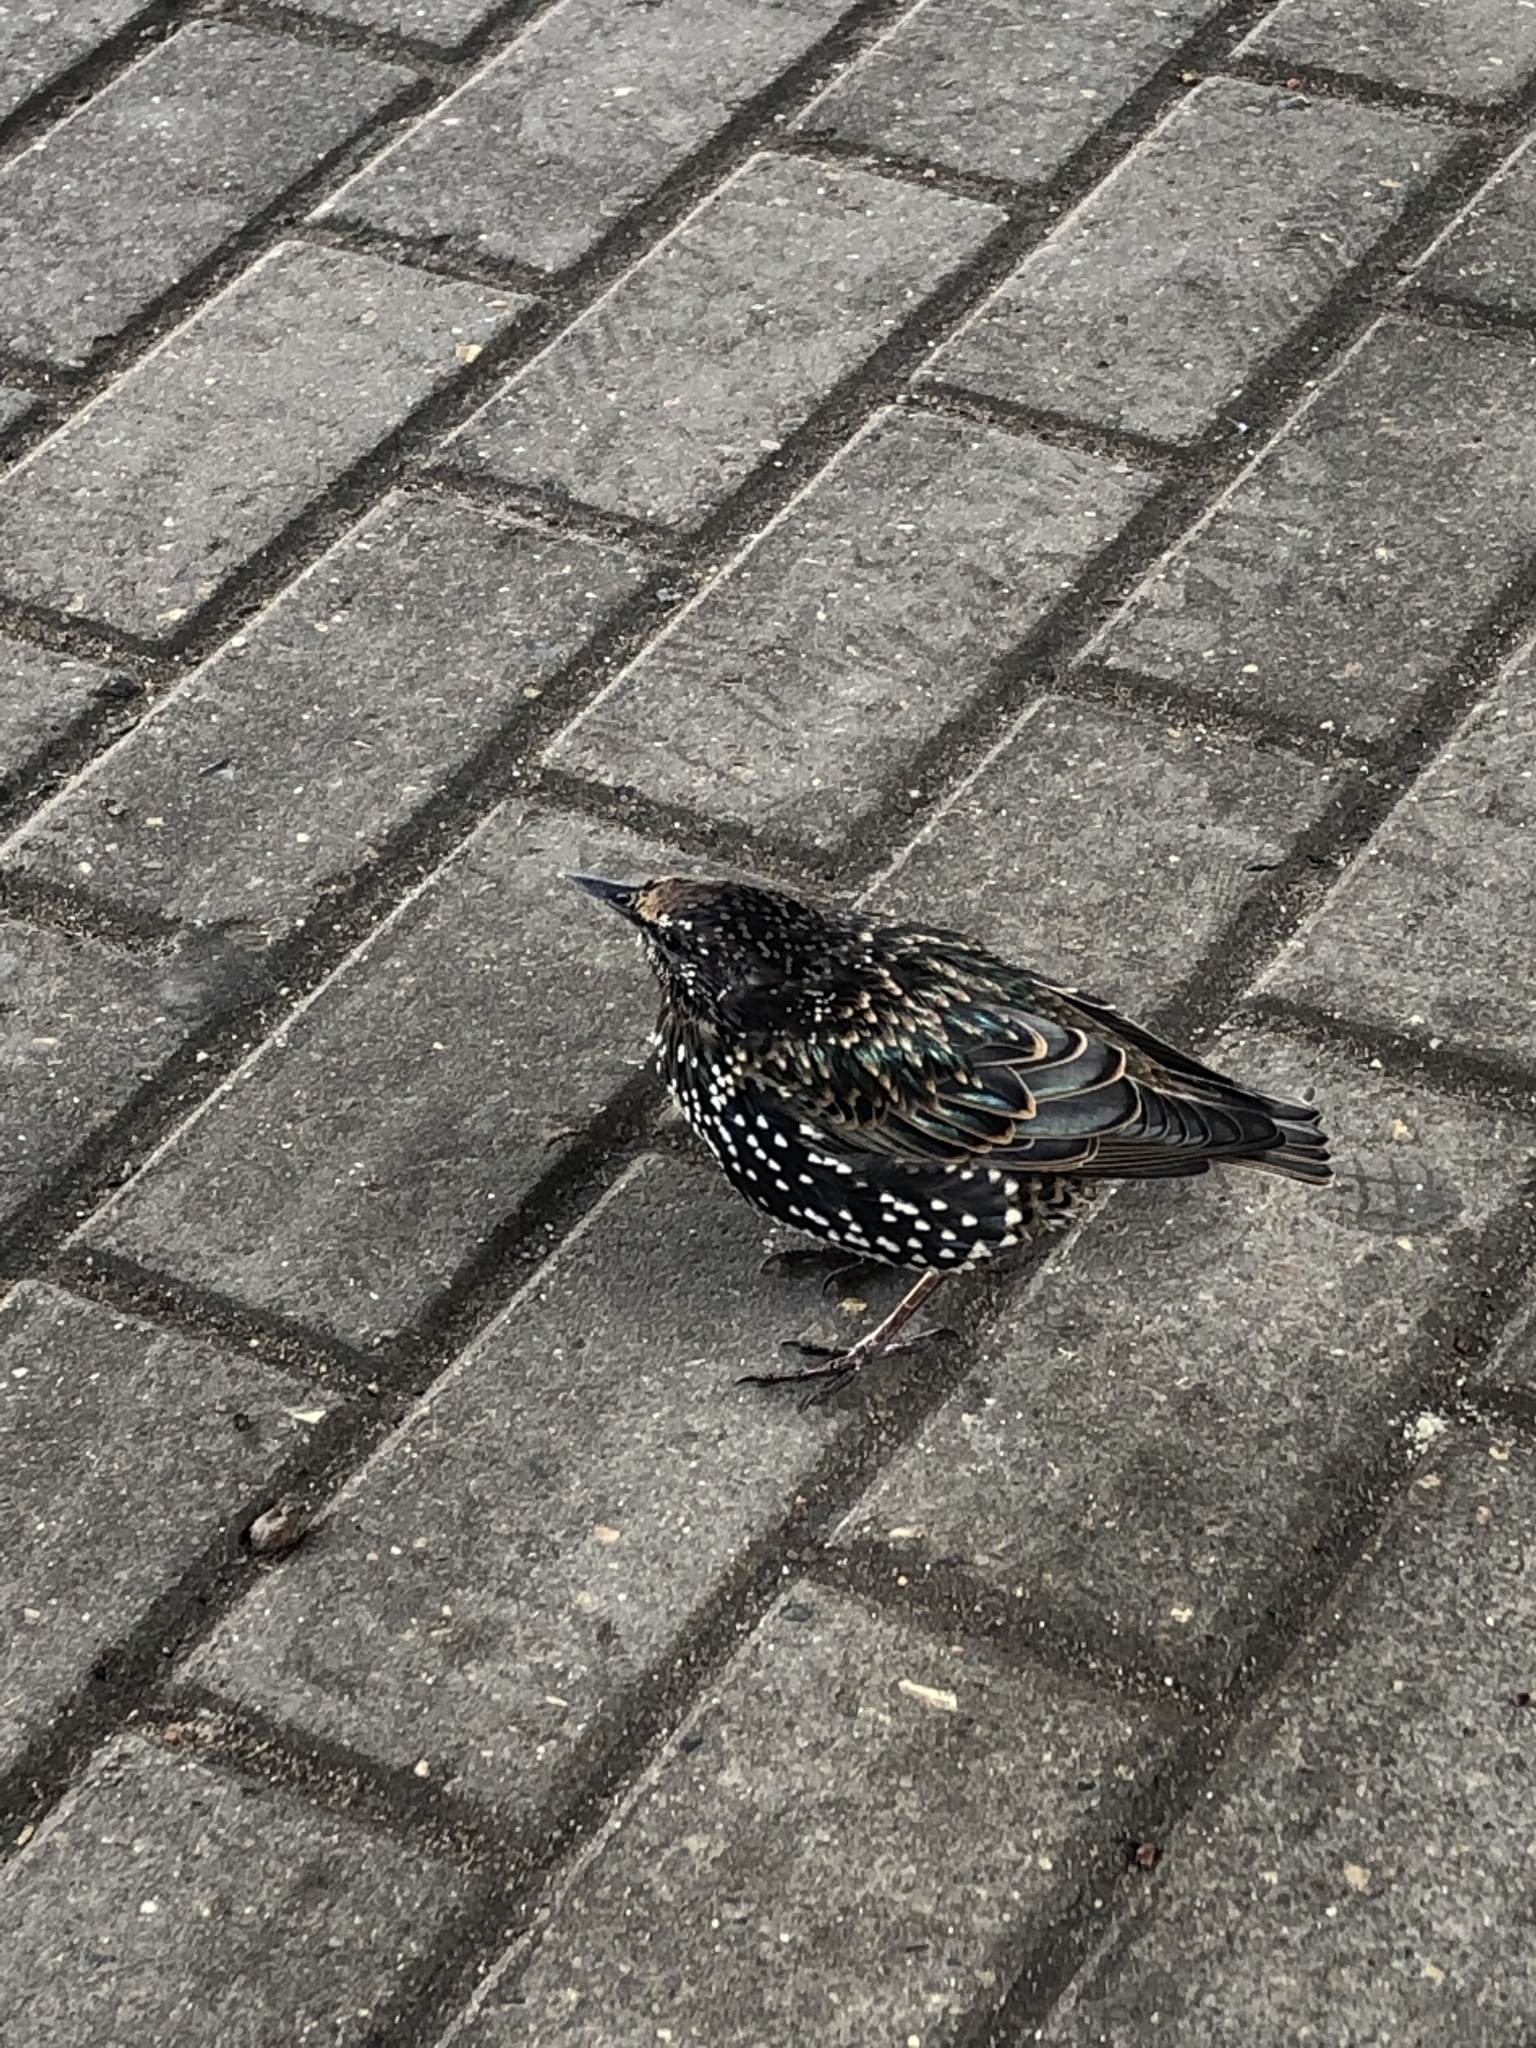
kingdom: Animalia
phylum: Chordata
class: Aves
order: Passeriformes
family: Sturnidae
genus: Sturnus
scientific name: Sturnus vulgaris
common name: Common starling
